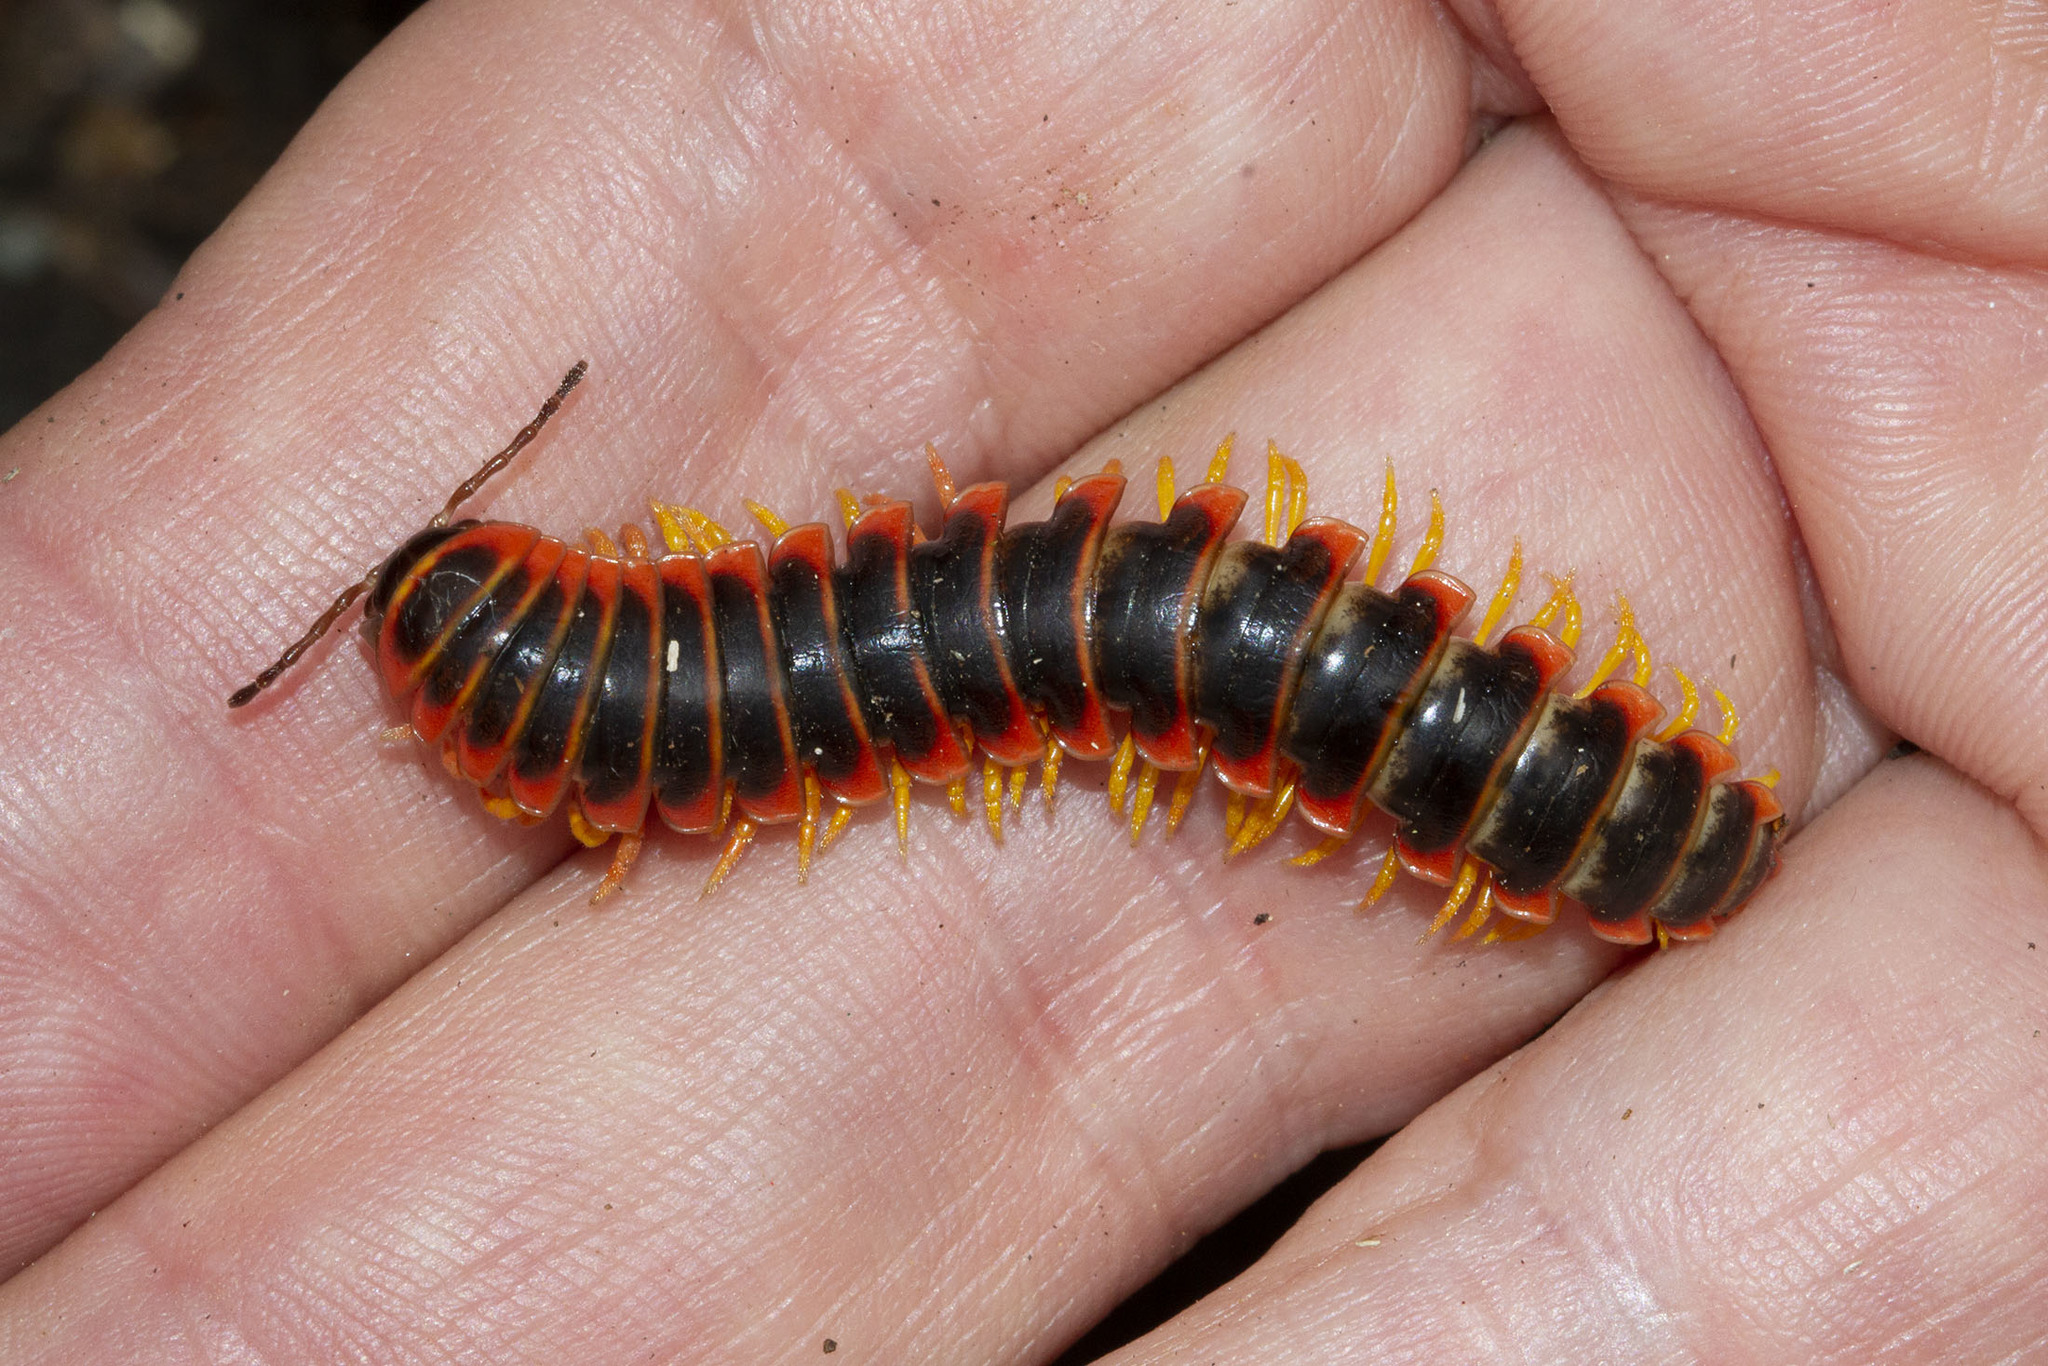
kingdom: Animalia
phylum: Arthropoda
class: Diplopoda
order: Polydesmida
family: Xystodesmidae
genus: Apheloria
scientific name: Apheloria virginiensis
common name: Black-and-gold flat millipede
